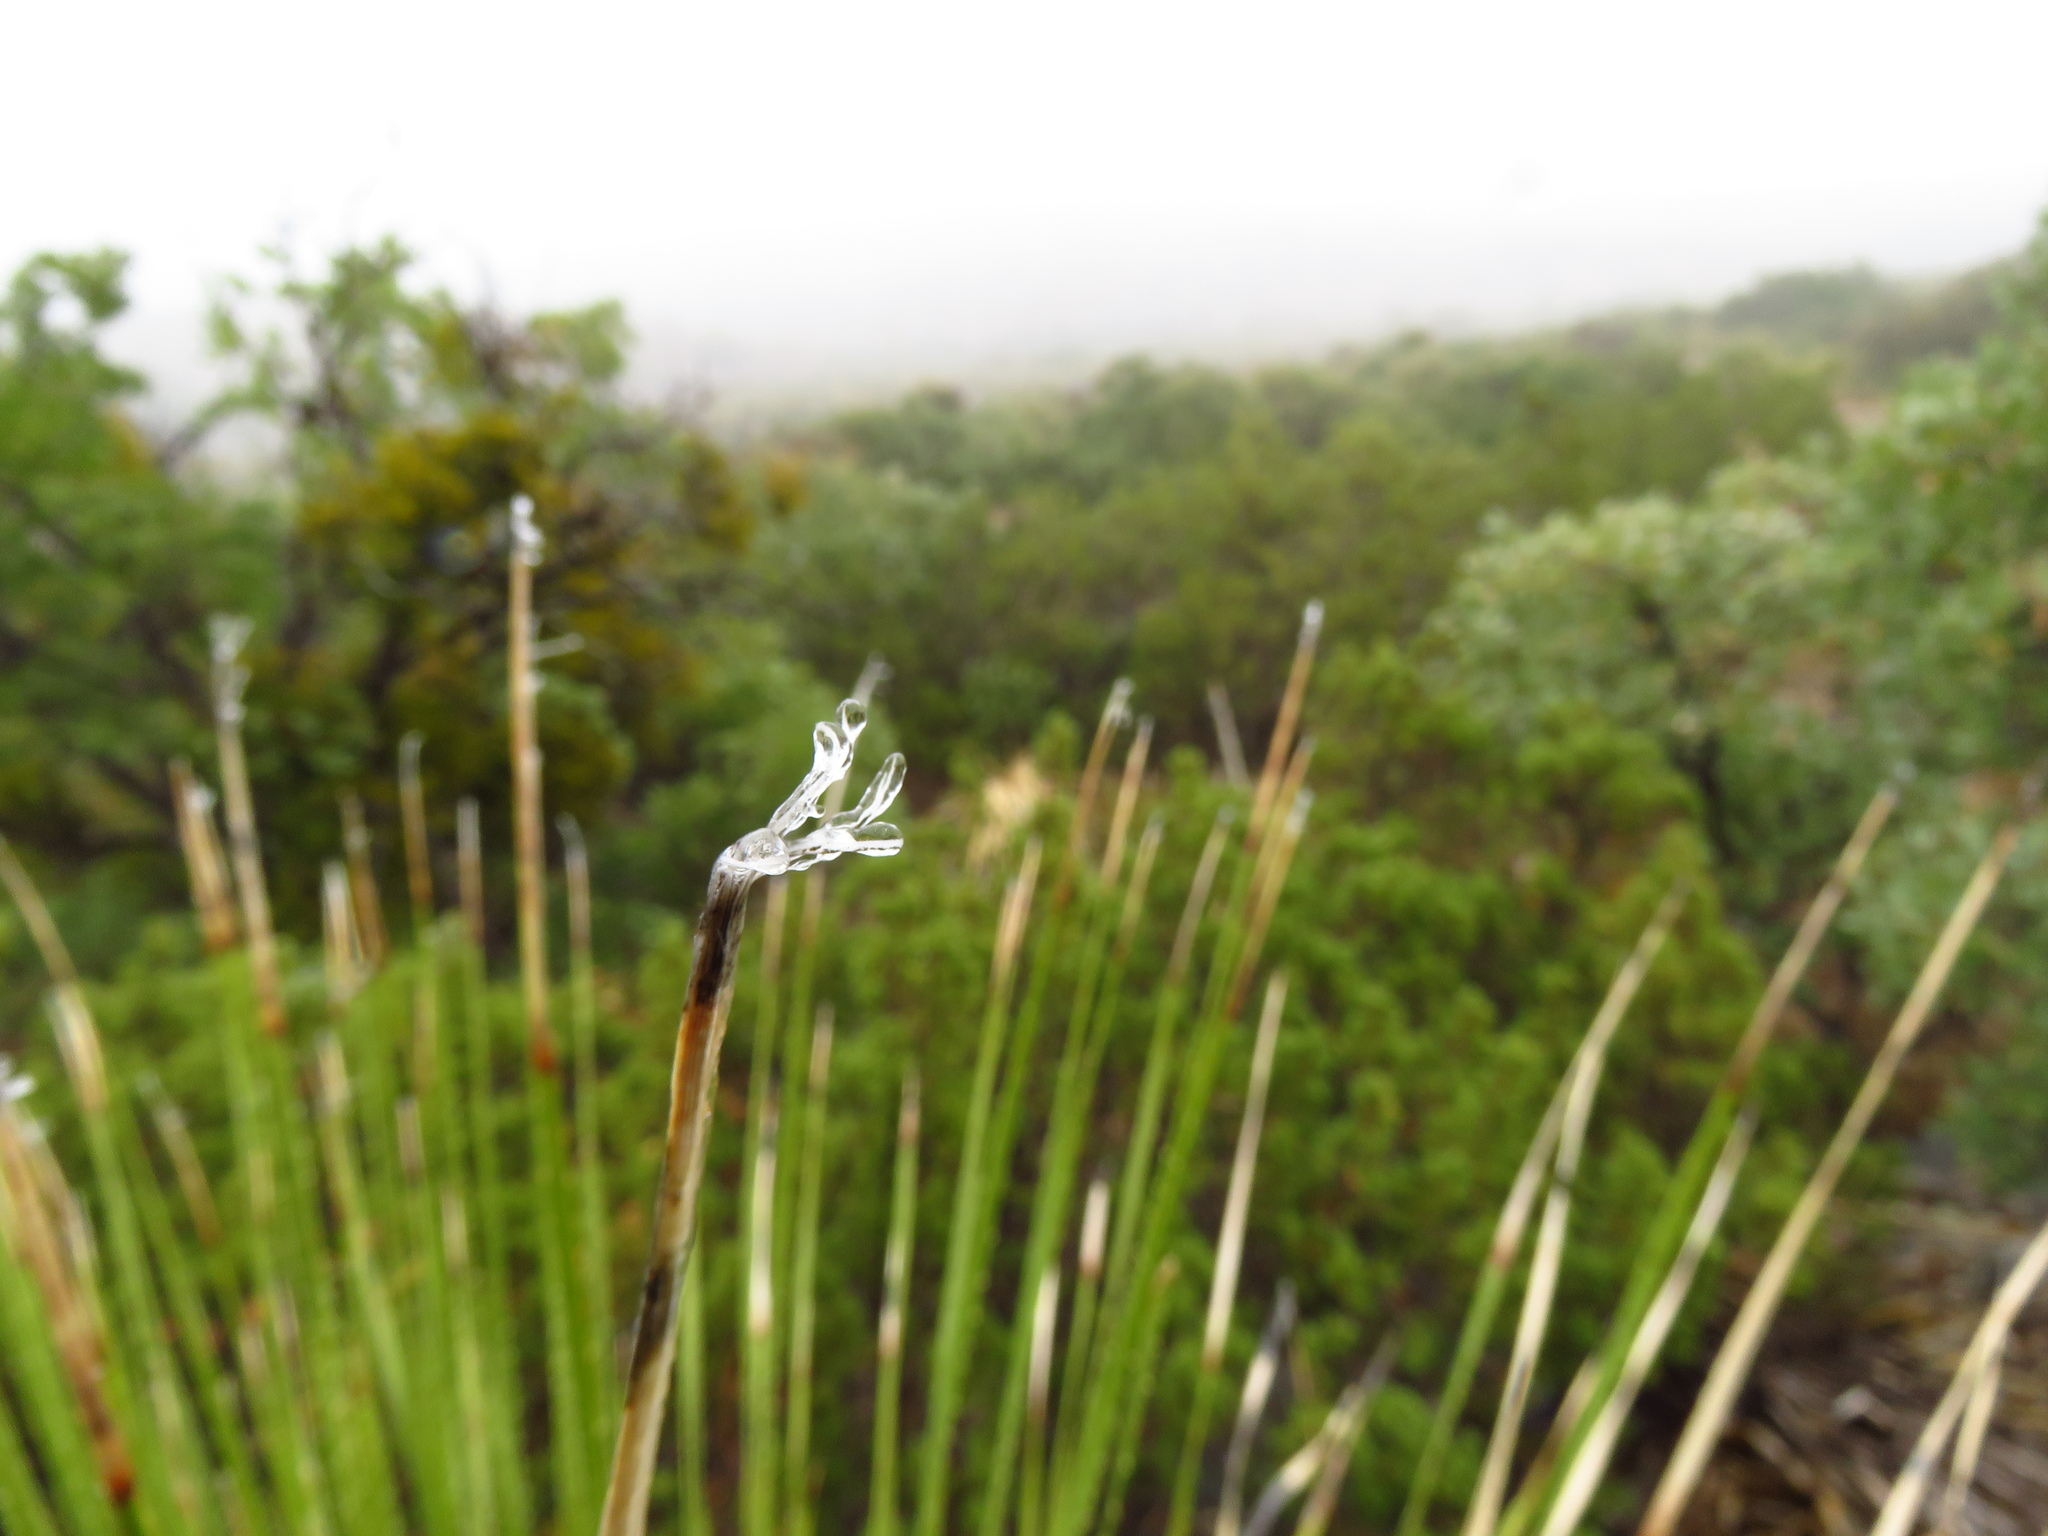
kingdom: Plantae
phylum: Tracheophyta
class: Liliopsida
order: Asparagales
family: Asparagaceae
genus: Dasylirion
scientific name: Dasylirion leiophyllum
